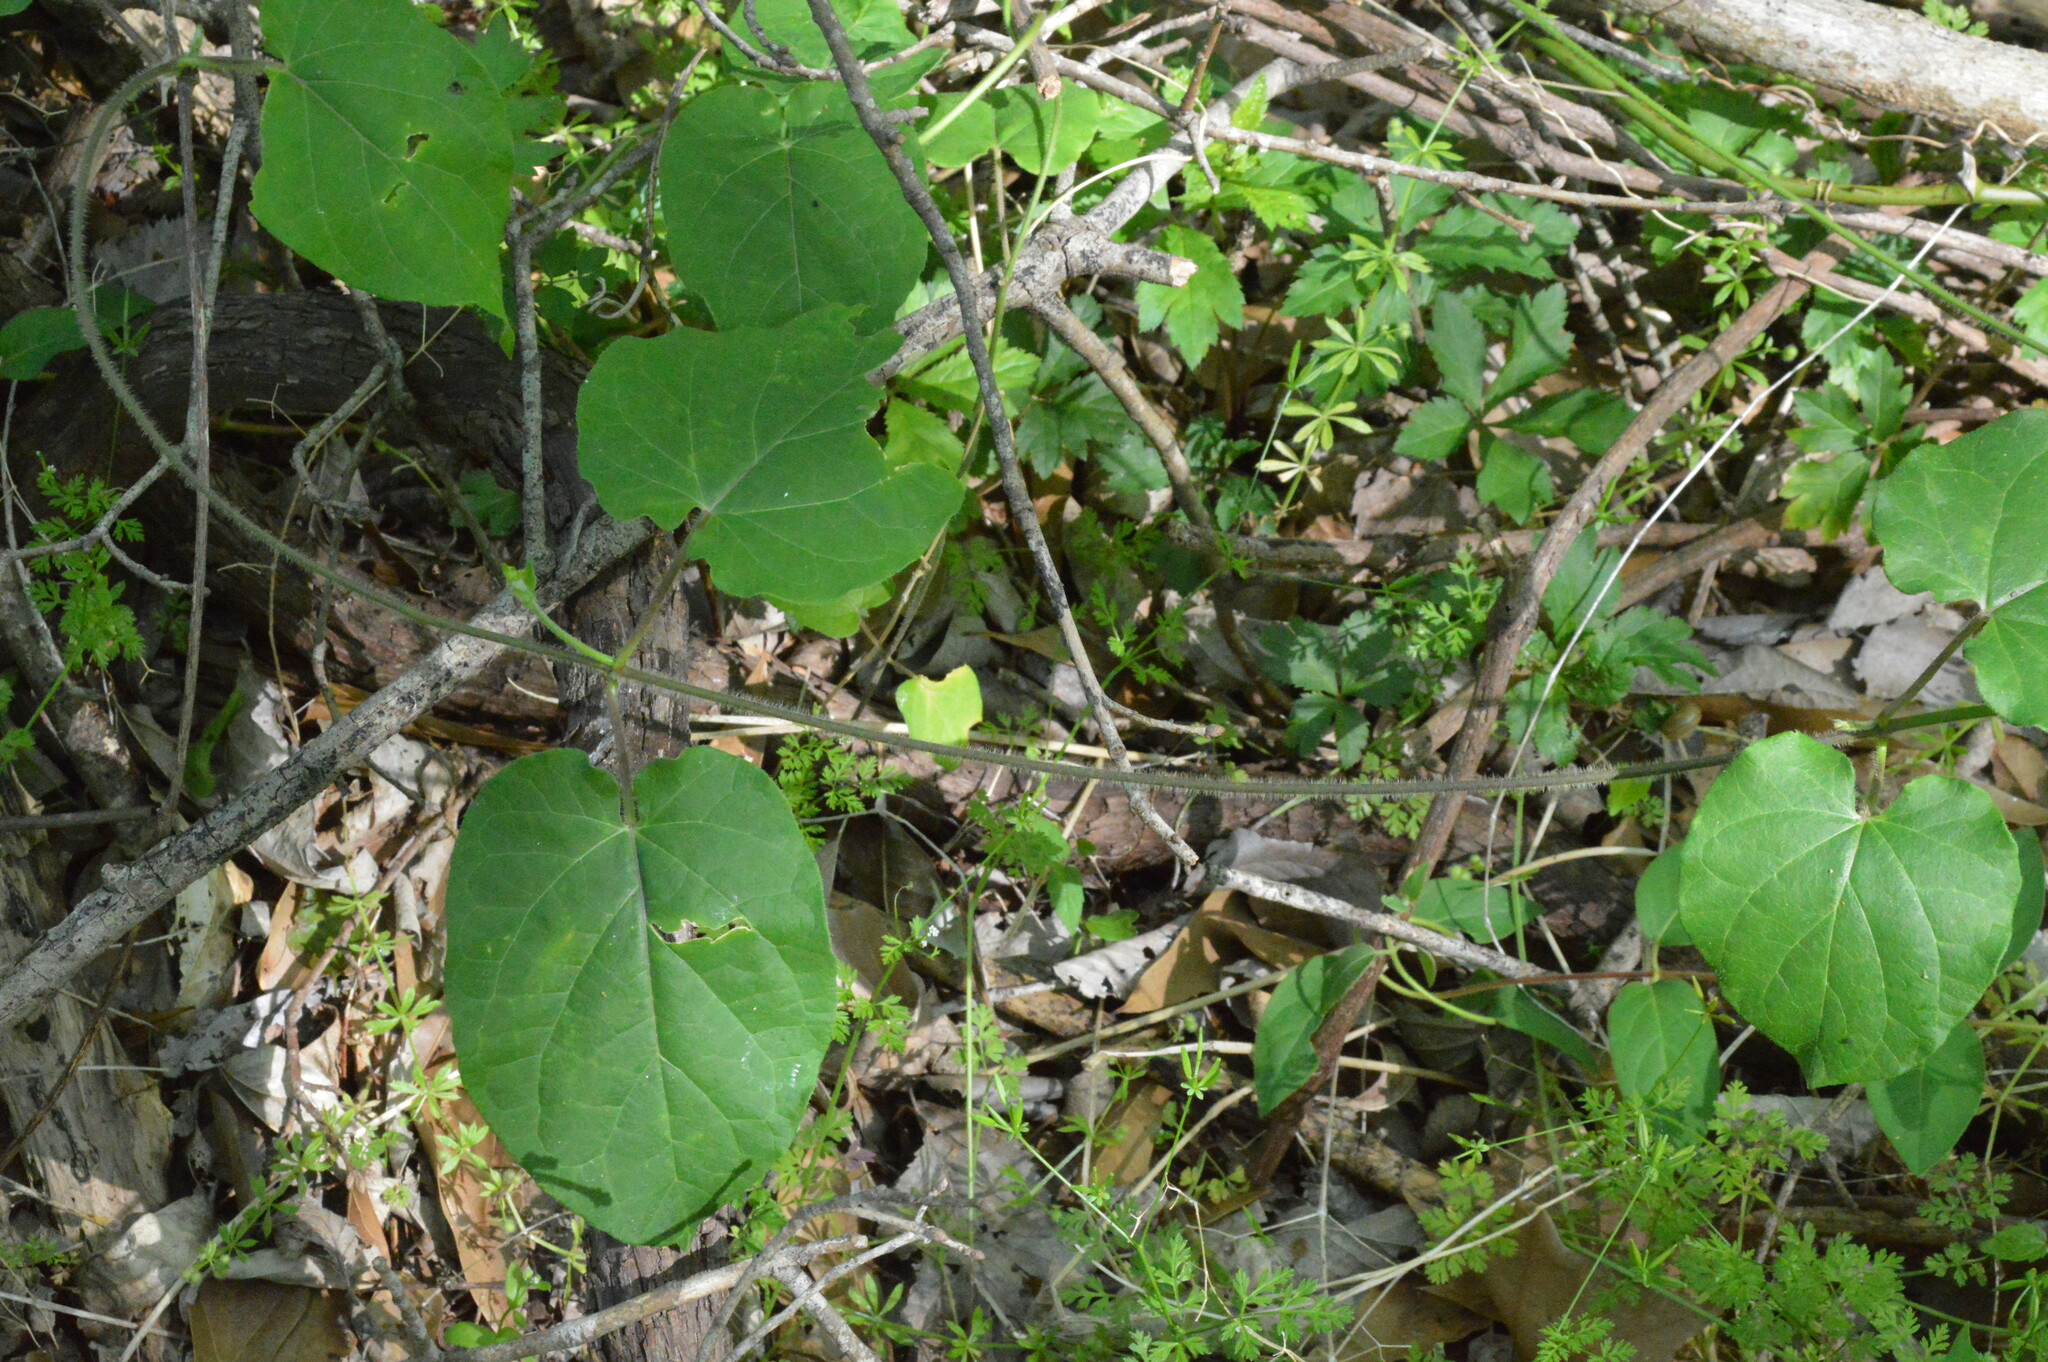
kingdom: Plantae
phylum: Tracheophyta
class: Magnoliopsida
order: Gentianales
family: Apocynaceae
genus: Gonolobus
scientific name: Gonolobus suberosus
